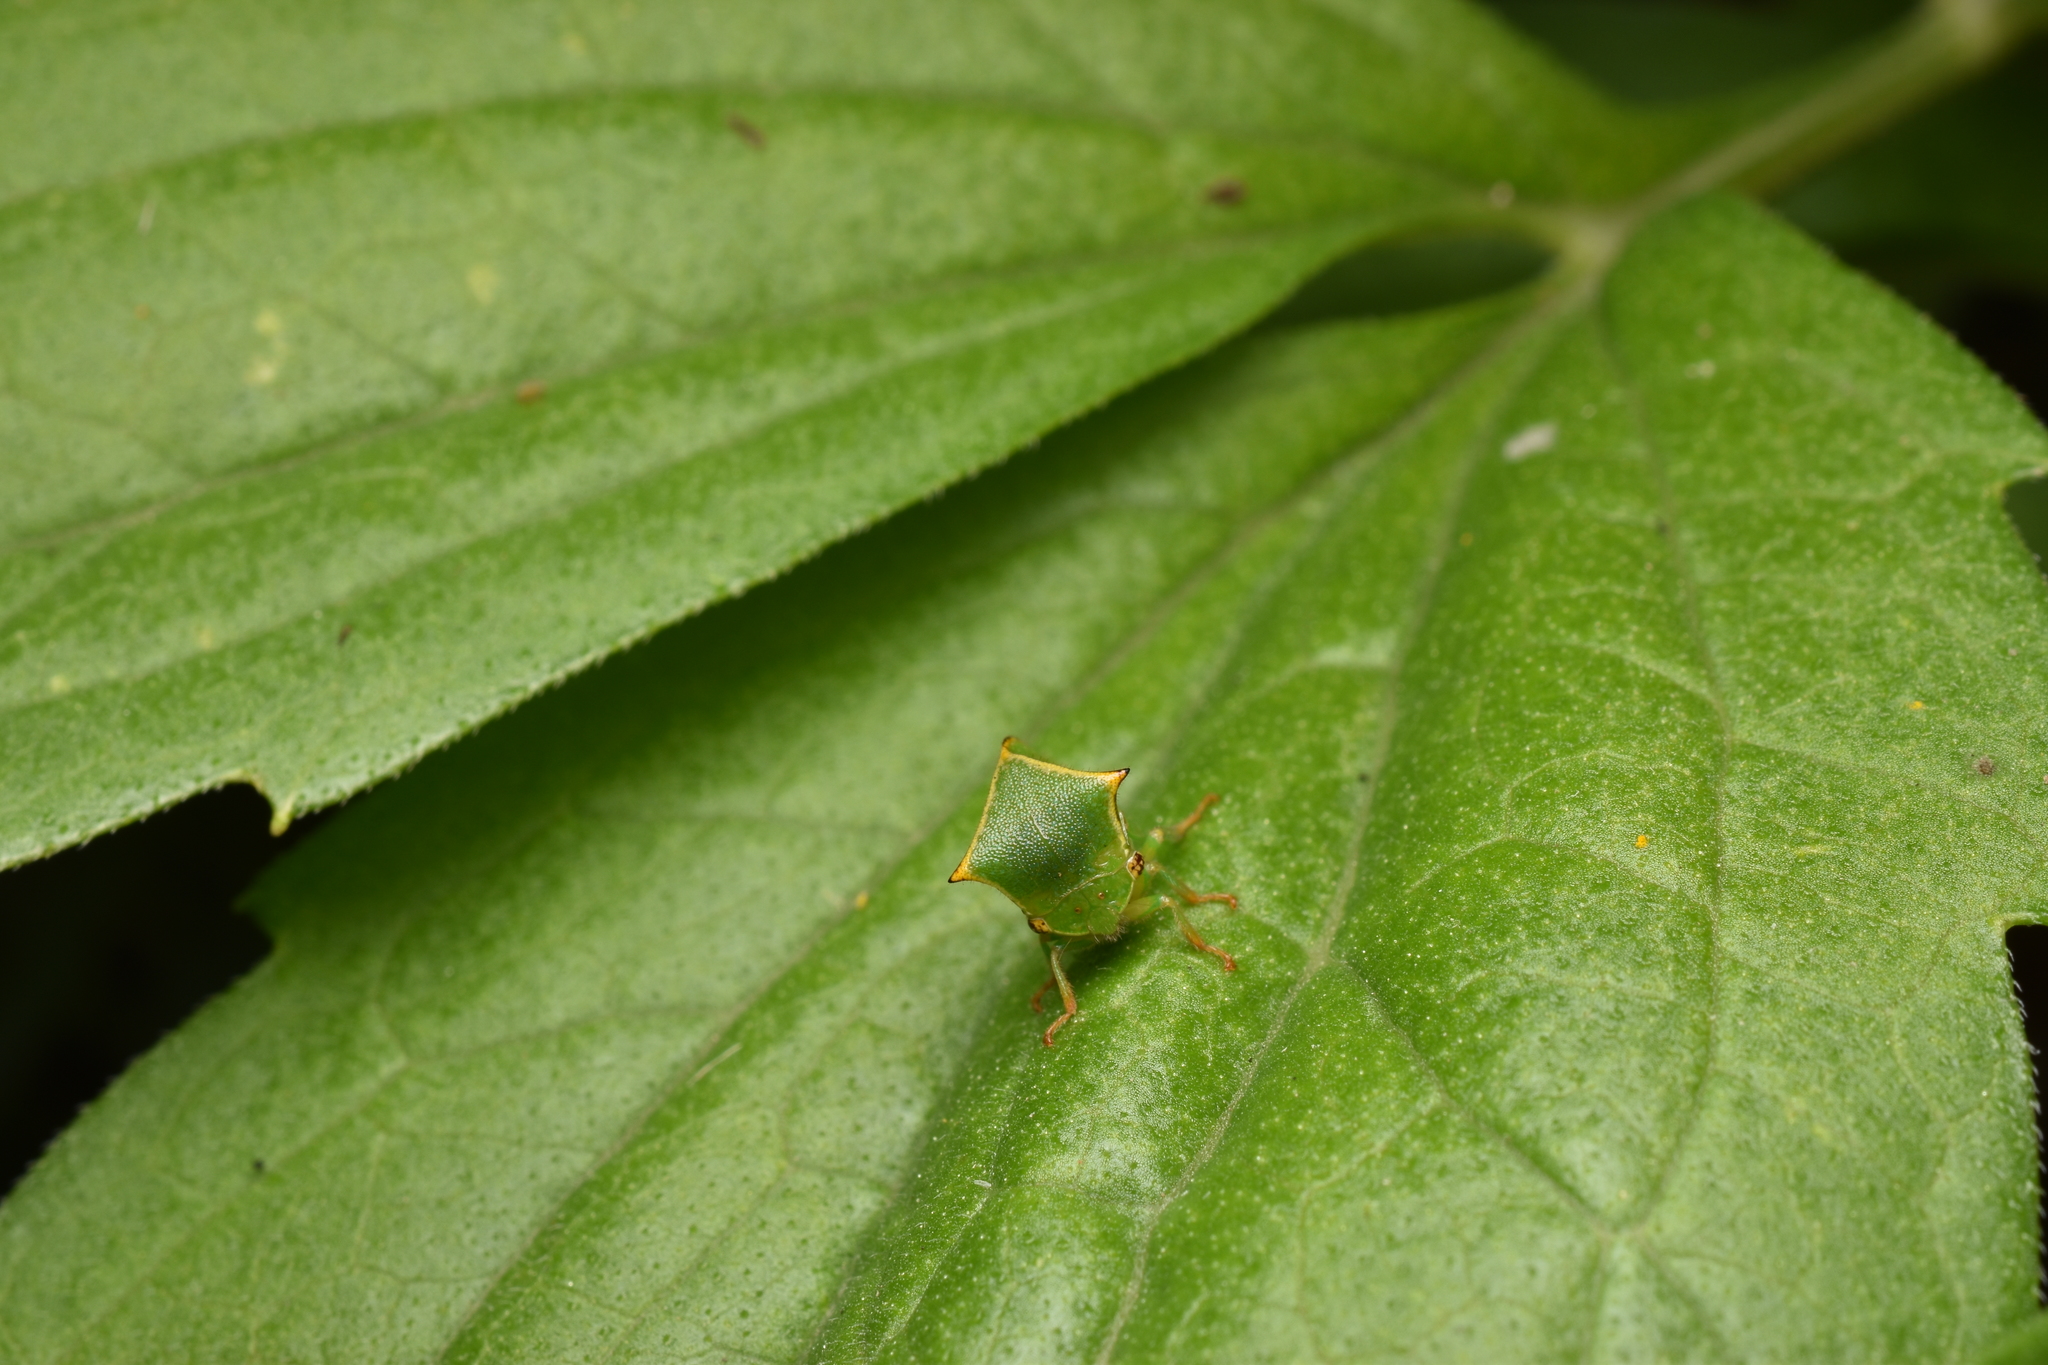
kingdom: Animalia
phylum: Arthropoda
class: Insecta
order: Hemiptera
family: Membracidae
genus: Stictocephala
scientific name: Stictocephala bisonia
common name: American buffalo treehopper
